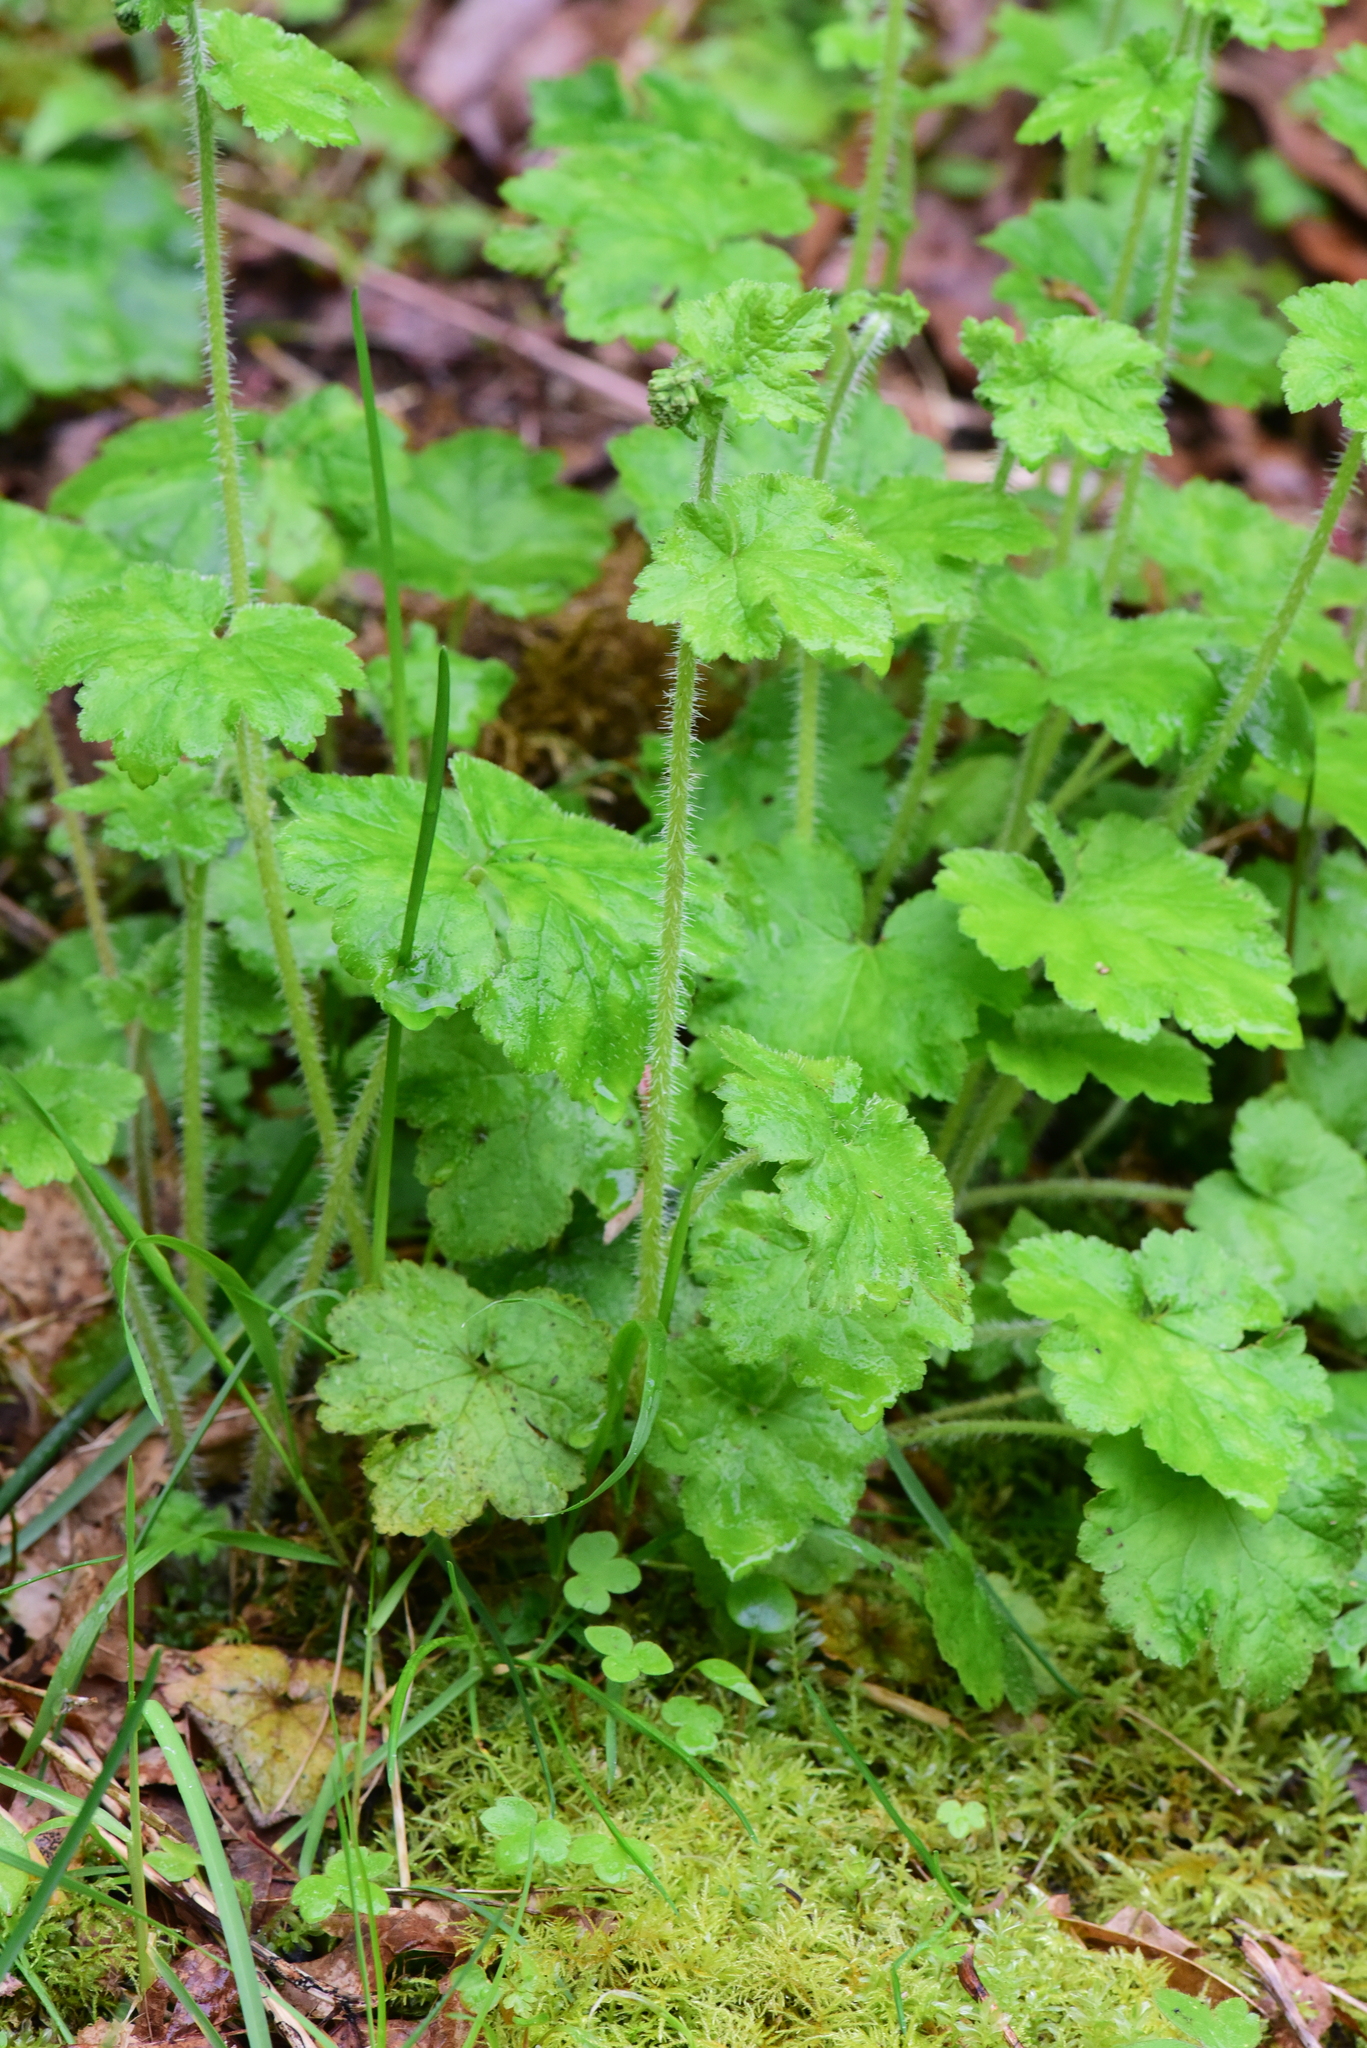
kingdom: Plantae
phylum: Tracheophyta
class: Magnoliopsida
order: Saxifragales
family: Saxifragaceae
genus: Tellima
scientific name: Tellima grandiflora
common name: Fringecups
